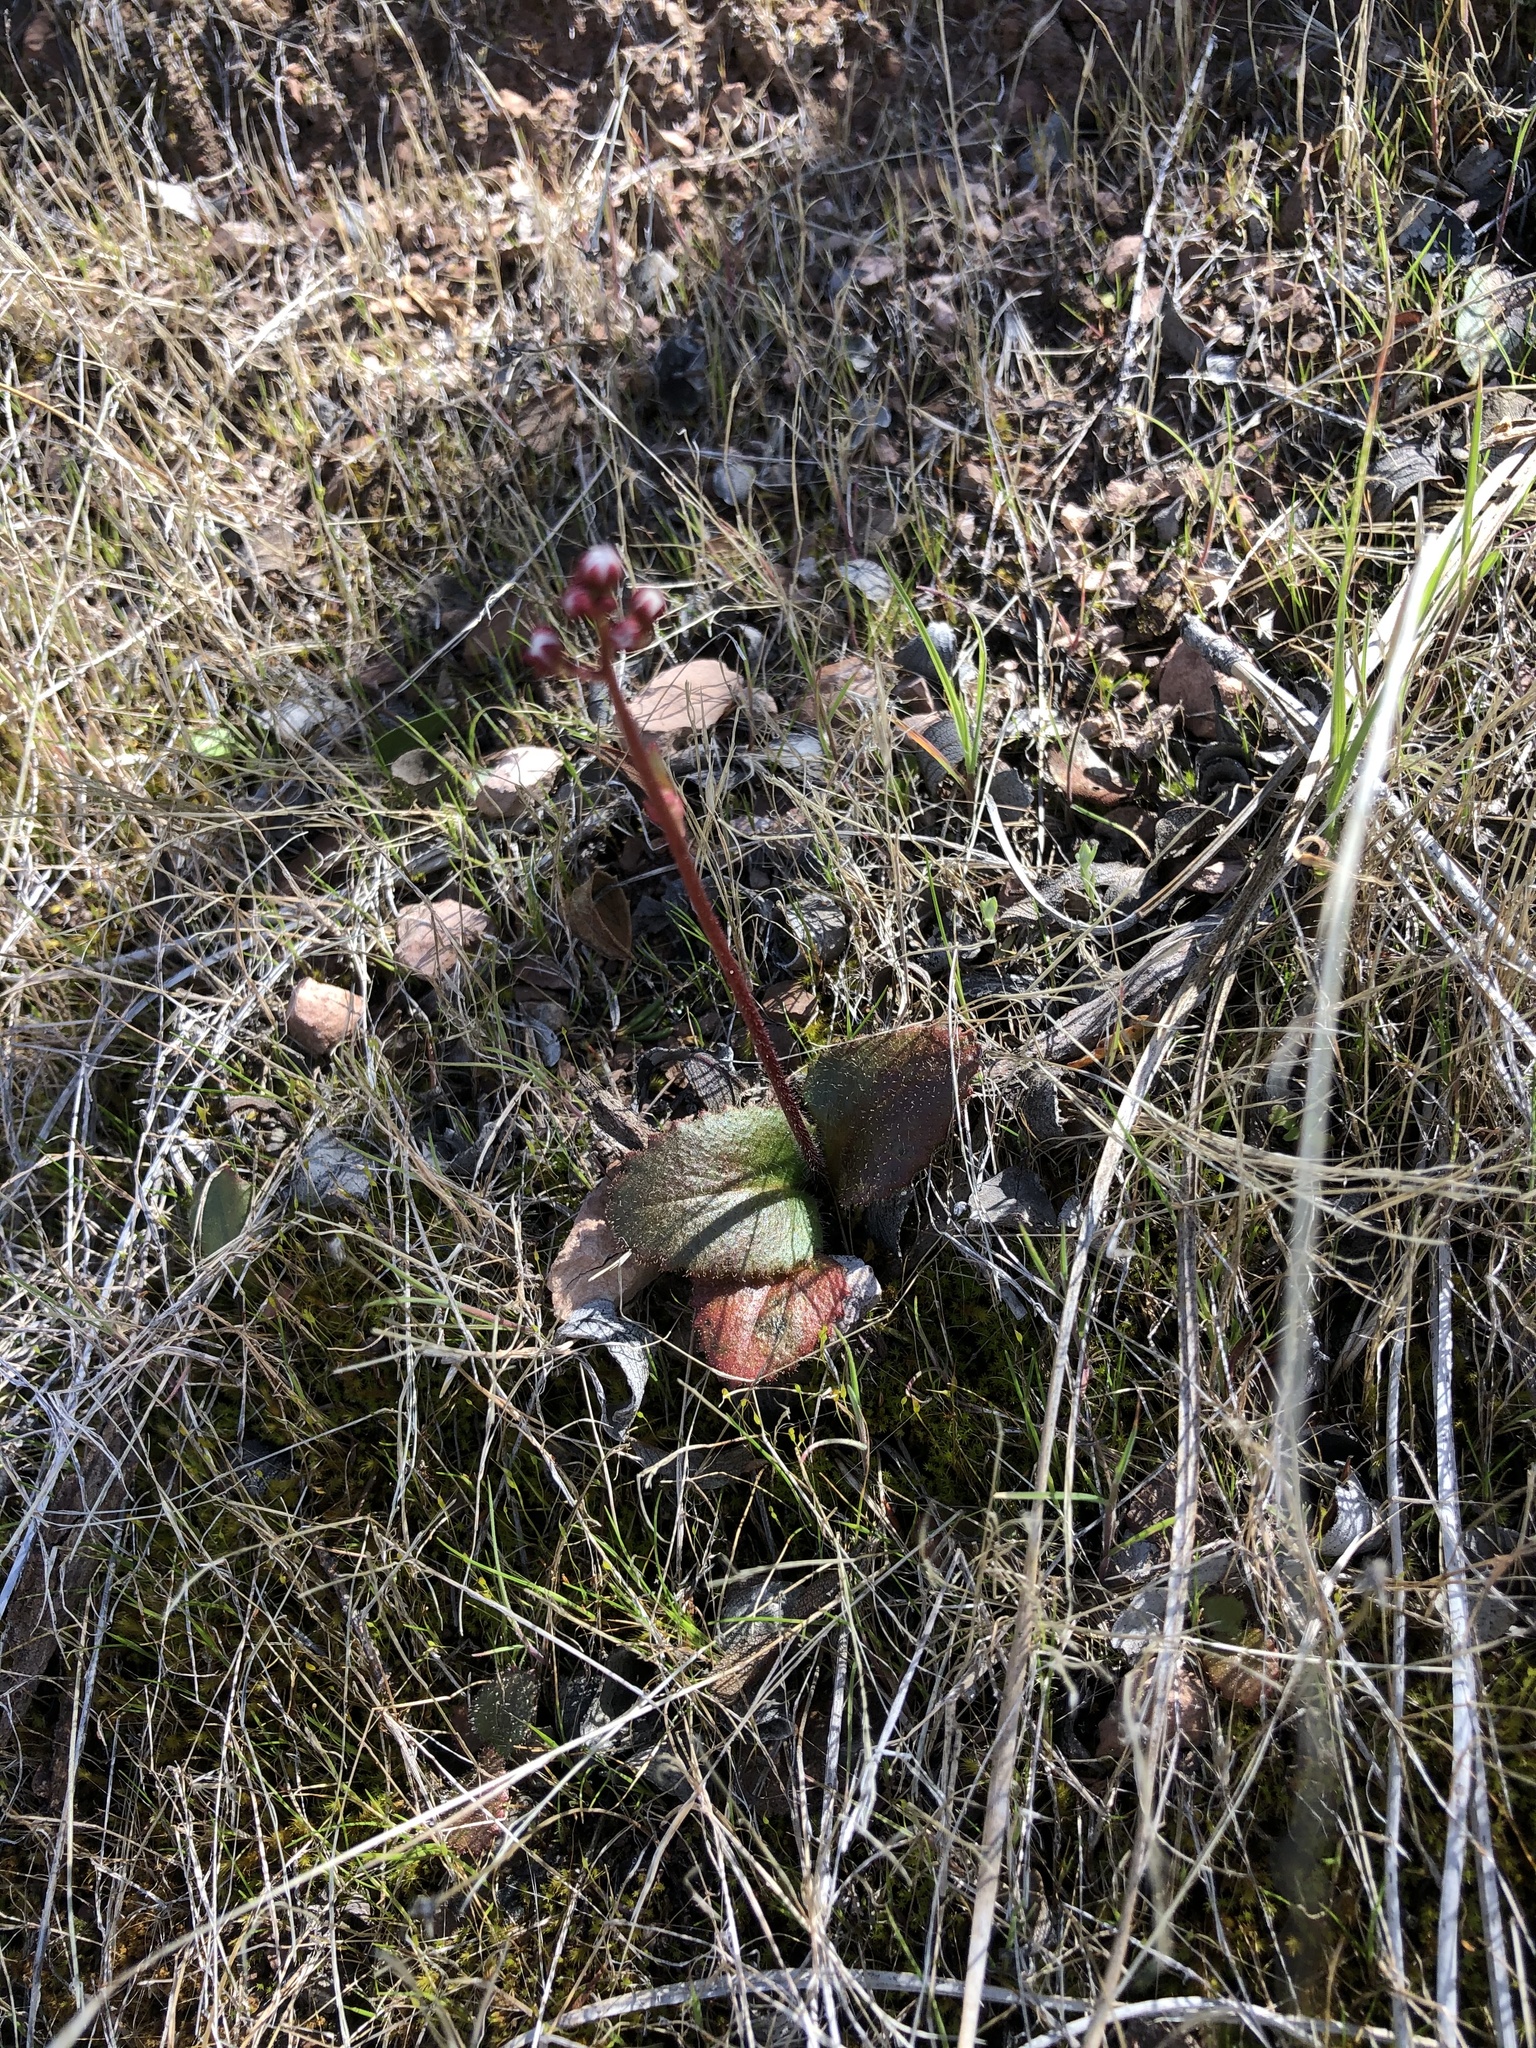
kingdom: Plantae
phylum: Tracheophyta
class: Magnoliopsida
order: Saxifragales
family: Saxifragaceae
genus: Micranthes
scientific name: Micranthes californica
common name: California saxifrage
